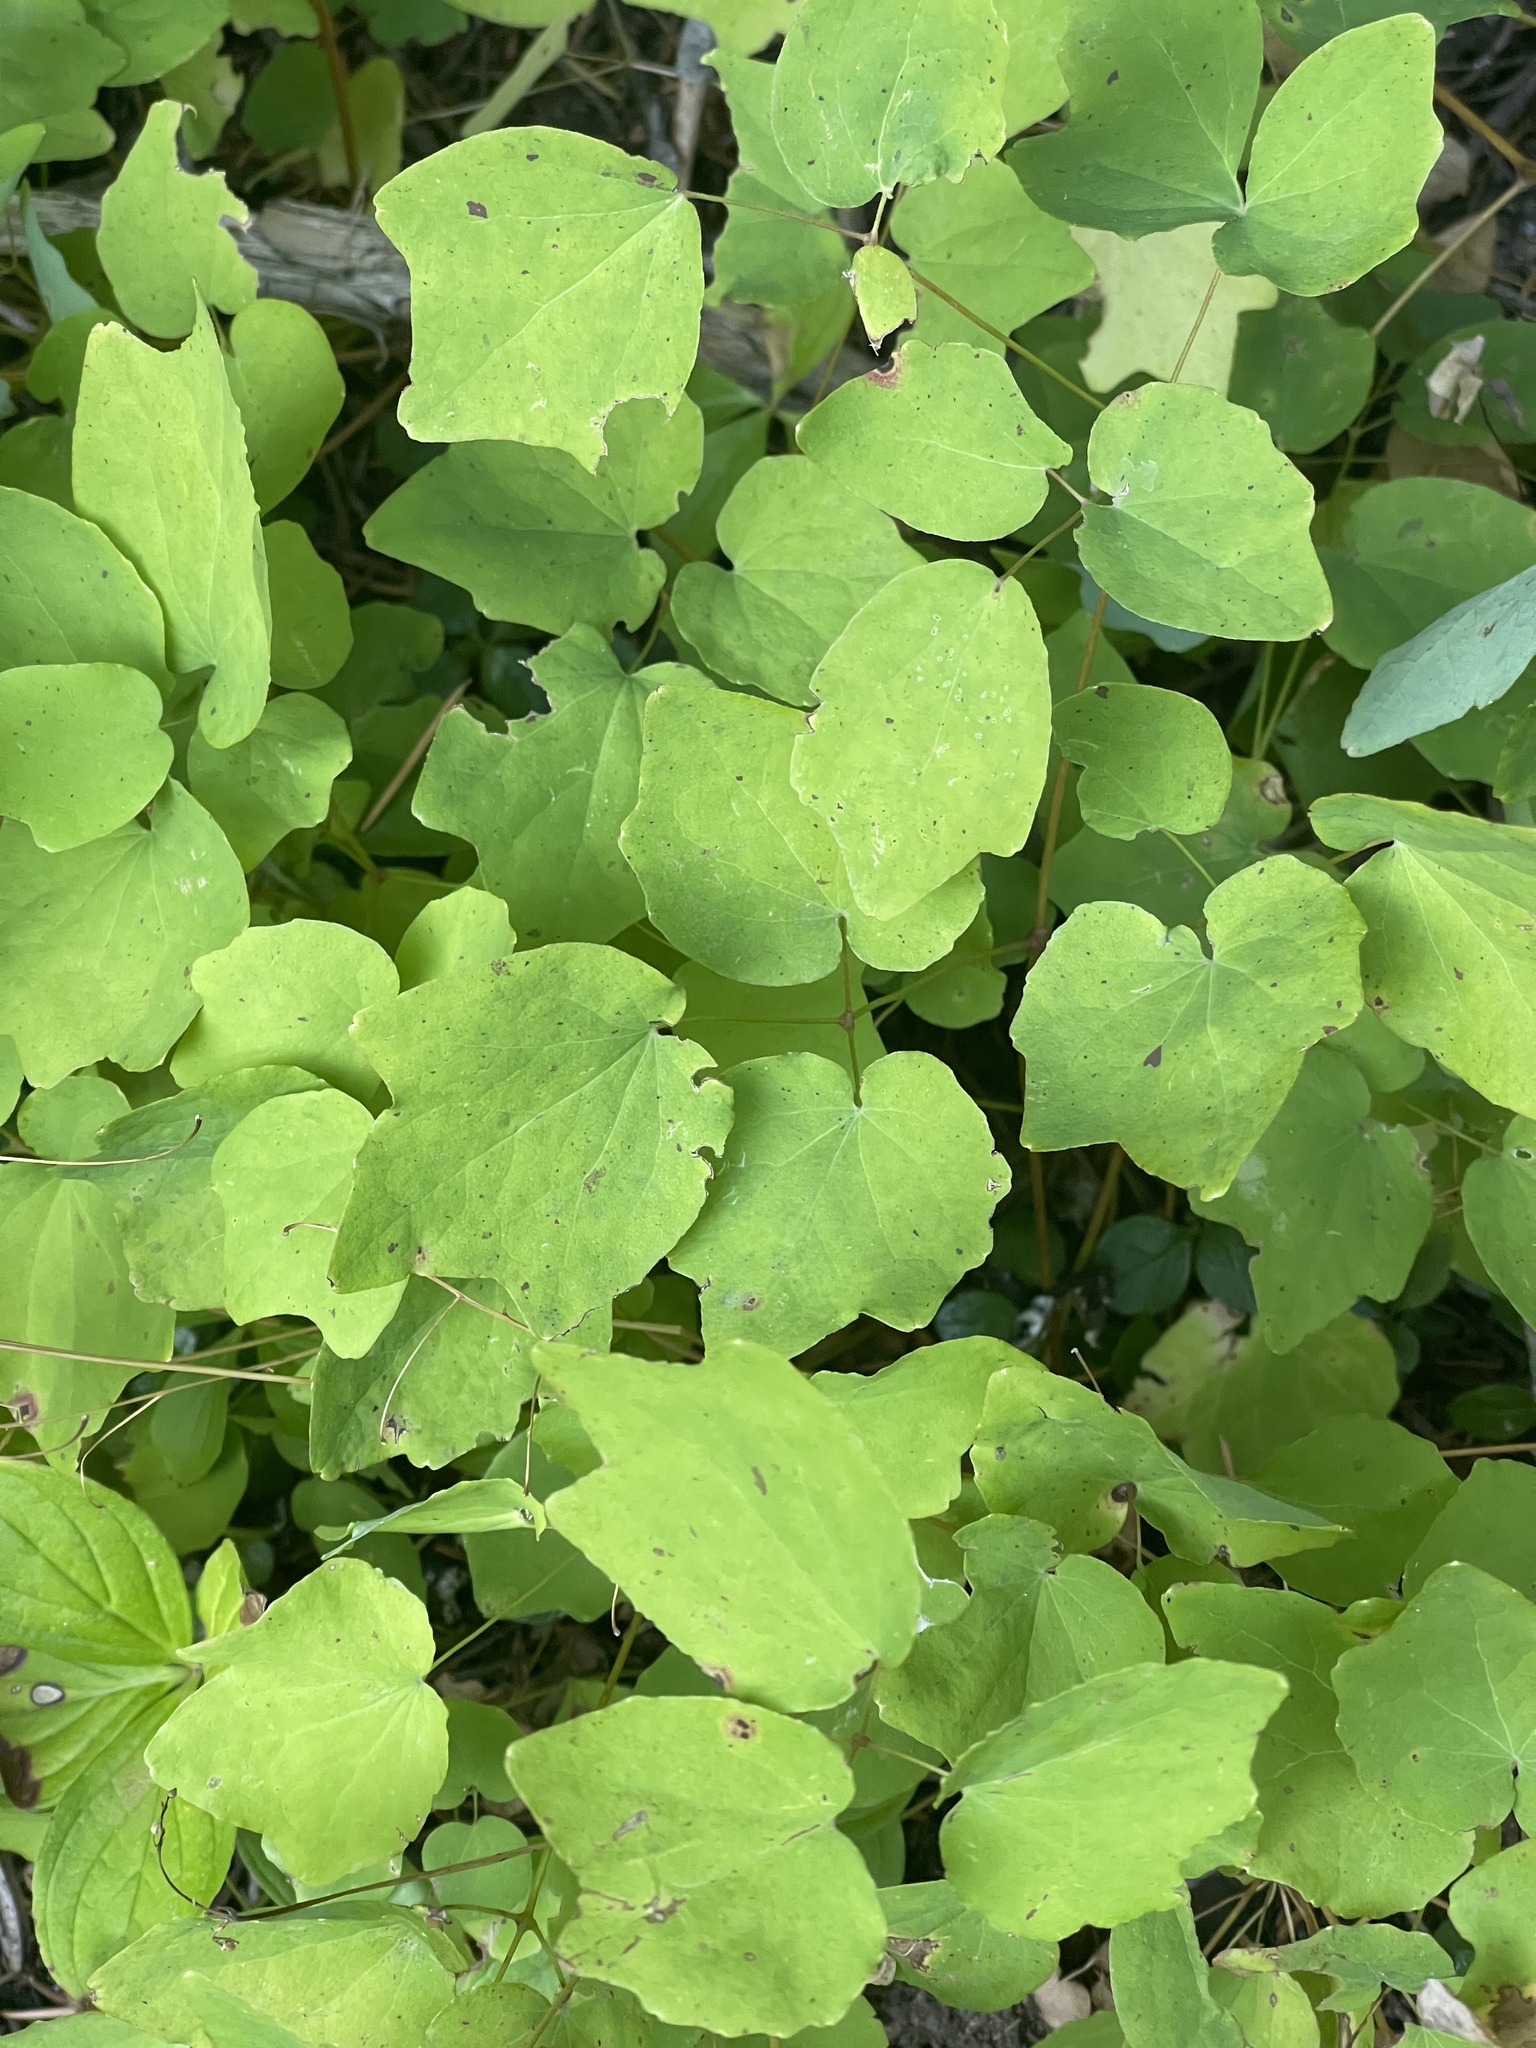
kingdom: Plantae
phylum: Tracheophyta
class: Magnoliopsida
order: Ranunculales
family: Berberidaceae
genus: Vancouveria
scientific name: Vancouveria hexandra
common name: Northern inside-out-flower
